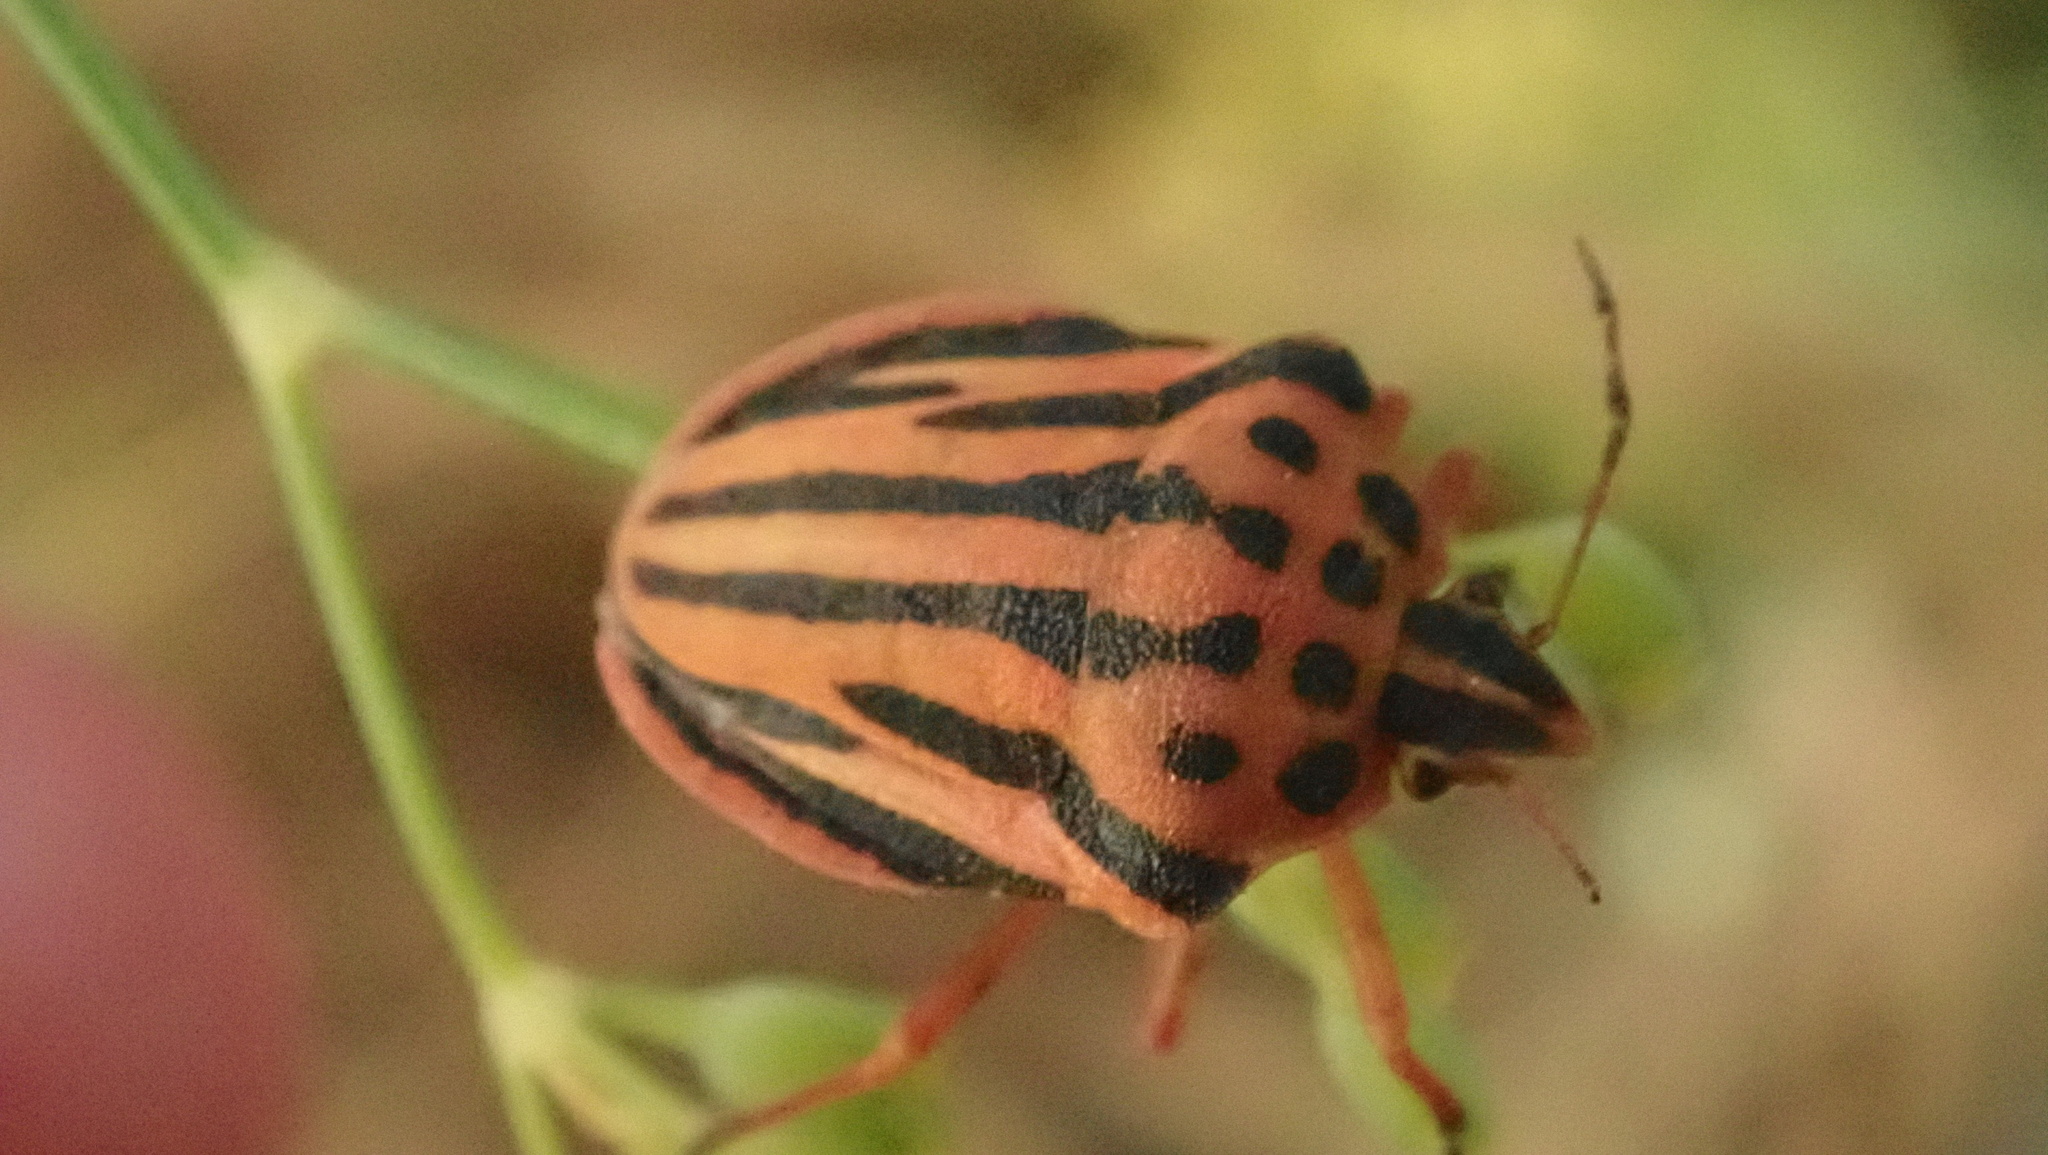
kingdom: Animalia
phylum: Arthropoda
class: Insecta
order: Hemiptera
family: Pentatomidae
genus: Graphosoma
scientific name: Graphosoma semipunctatum
